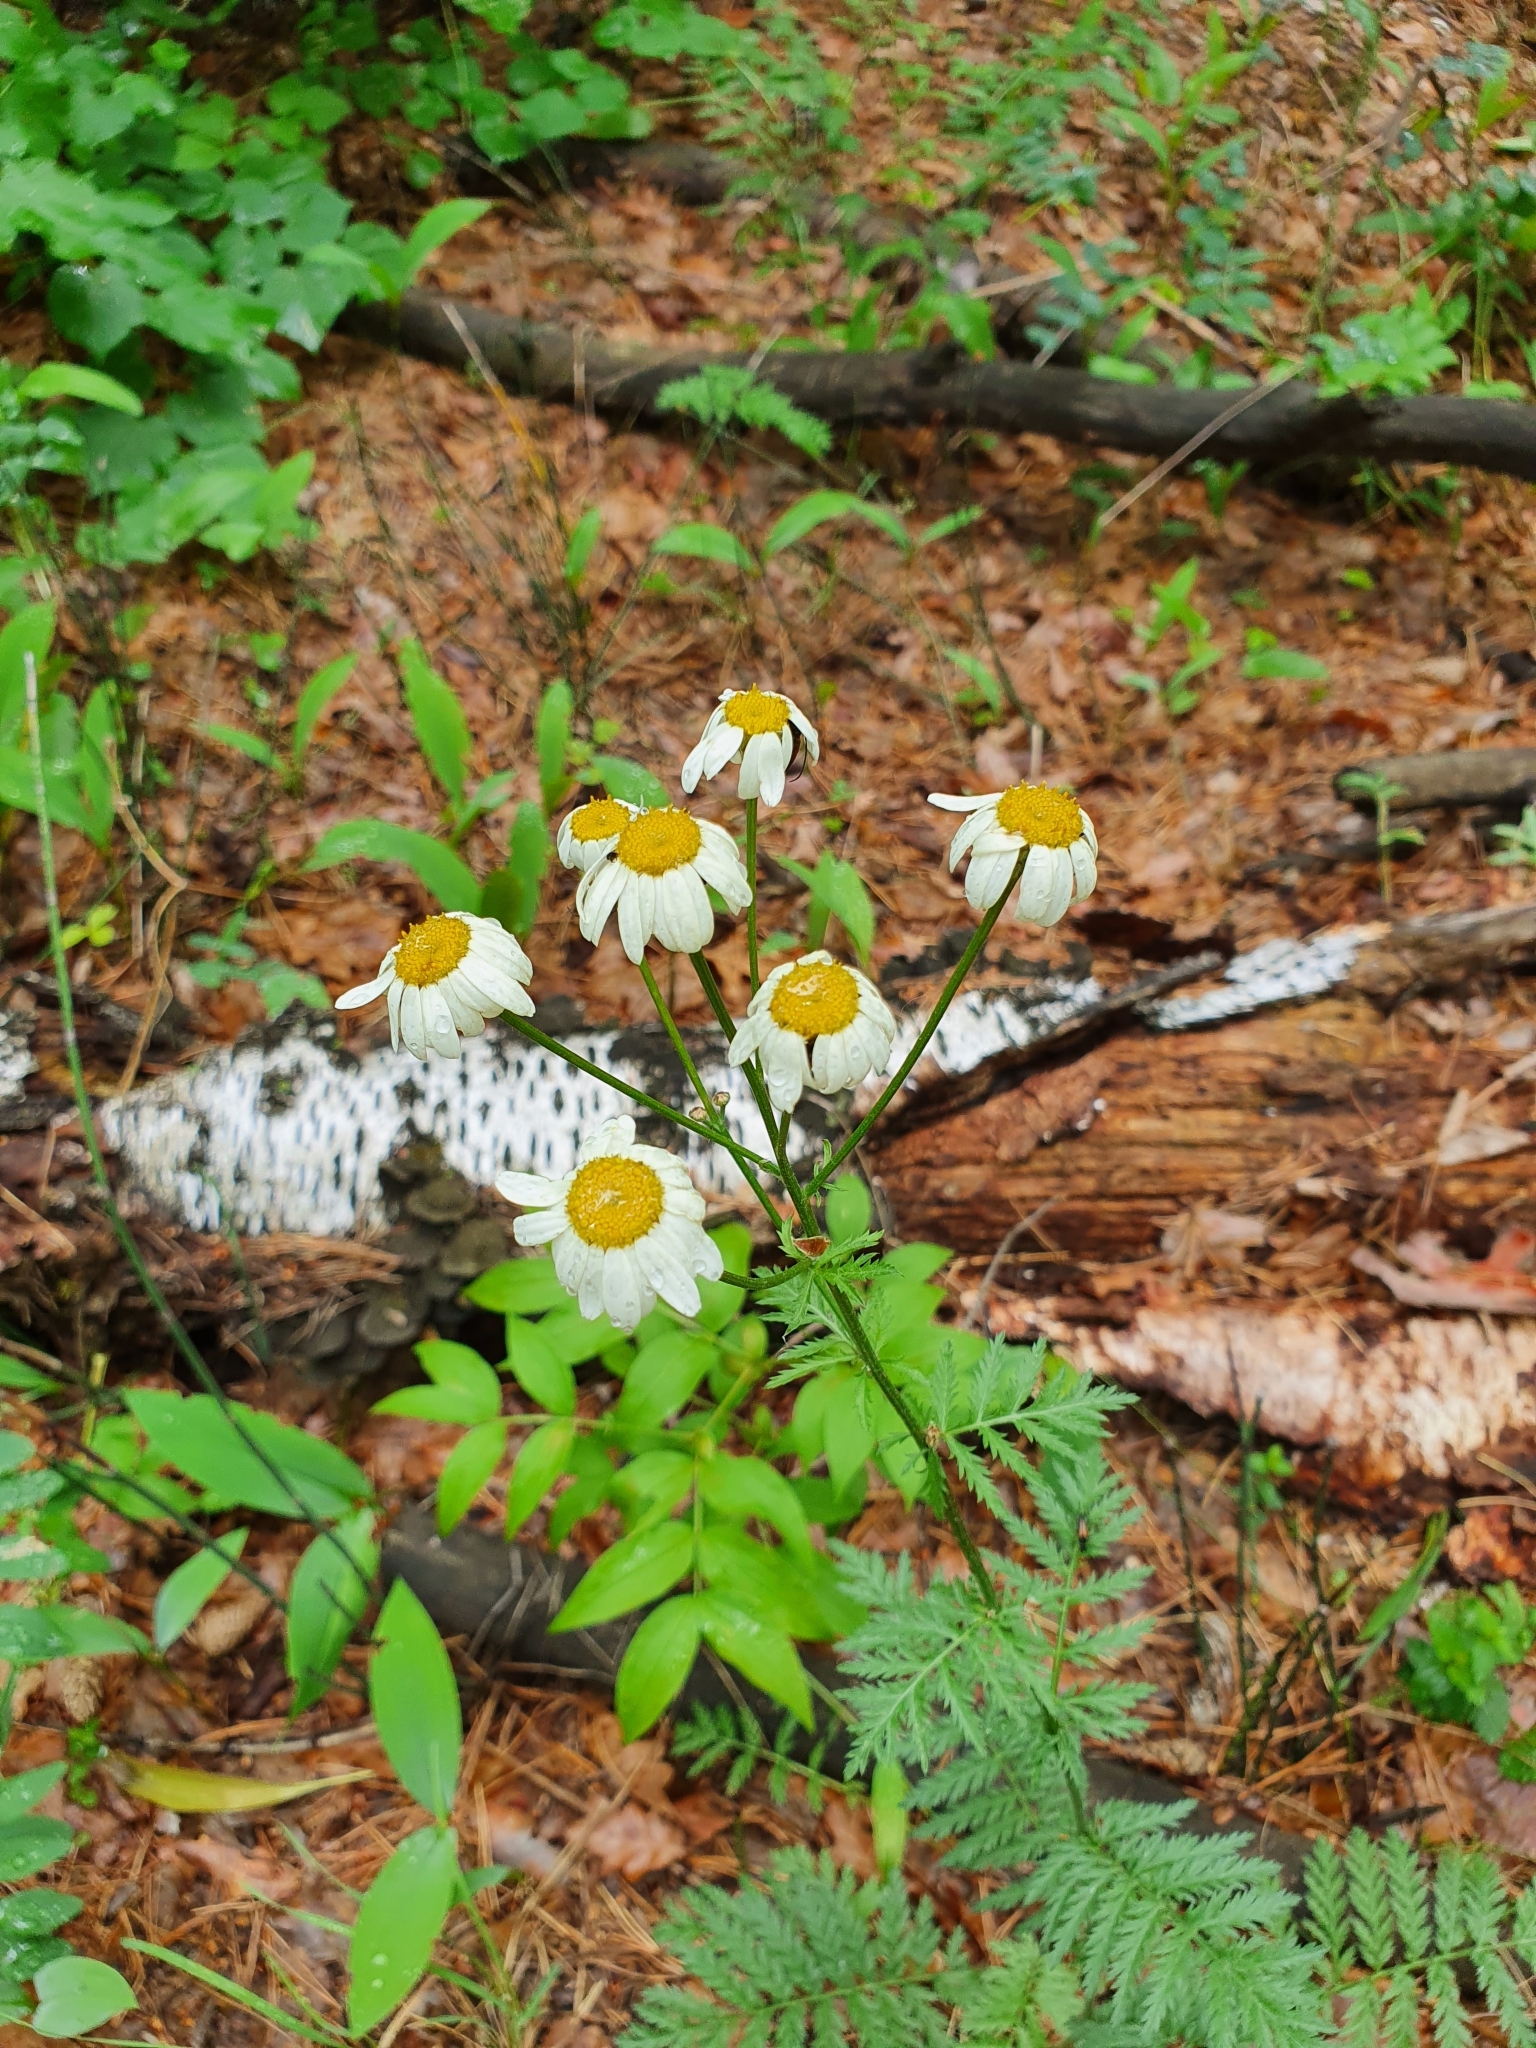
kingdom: Plantae
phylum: Tracheophyta
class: Magnoliopsida
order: Asterales
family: Asteraceae
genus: Tanacetum
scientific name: Tanacetum corymbosum
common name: Scentless feverfew
